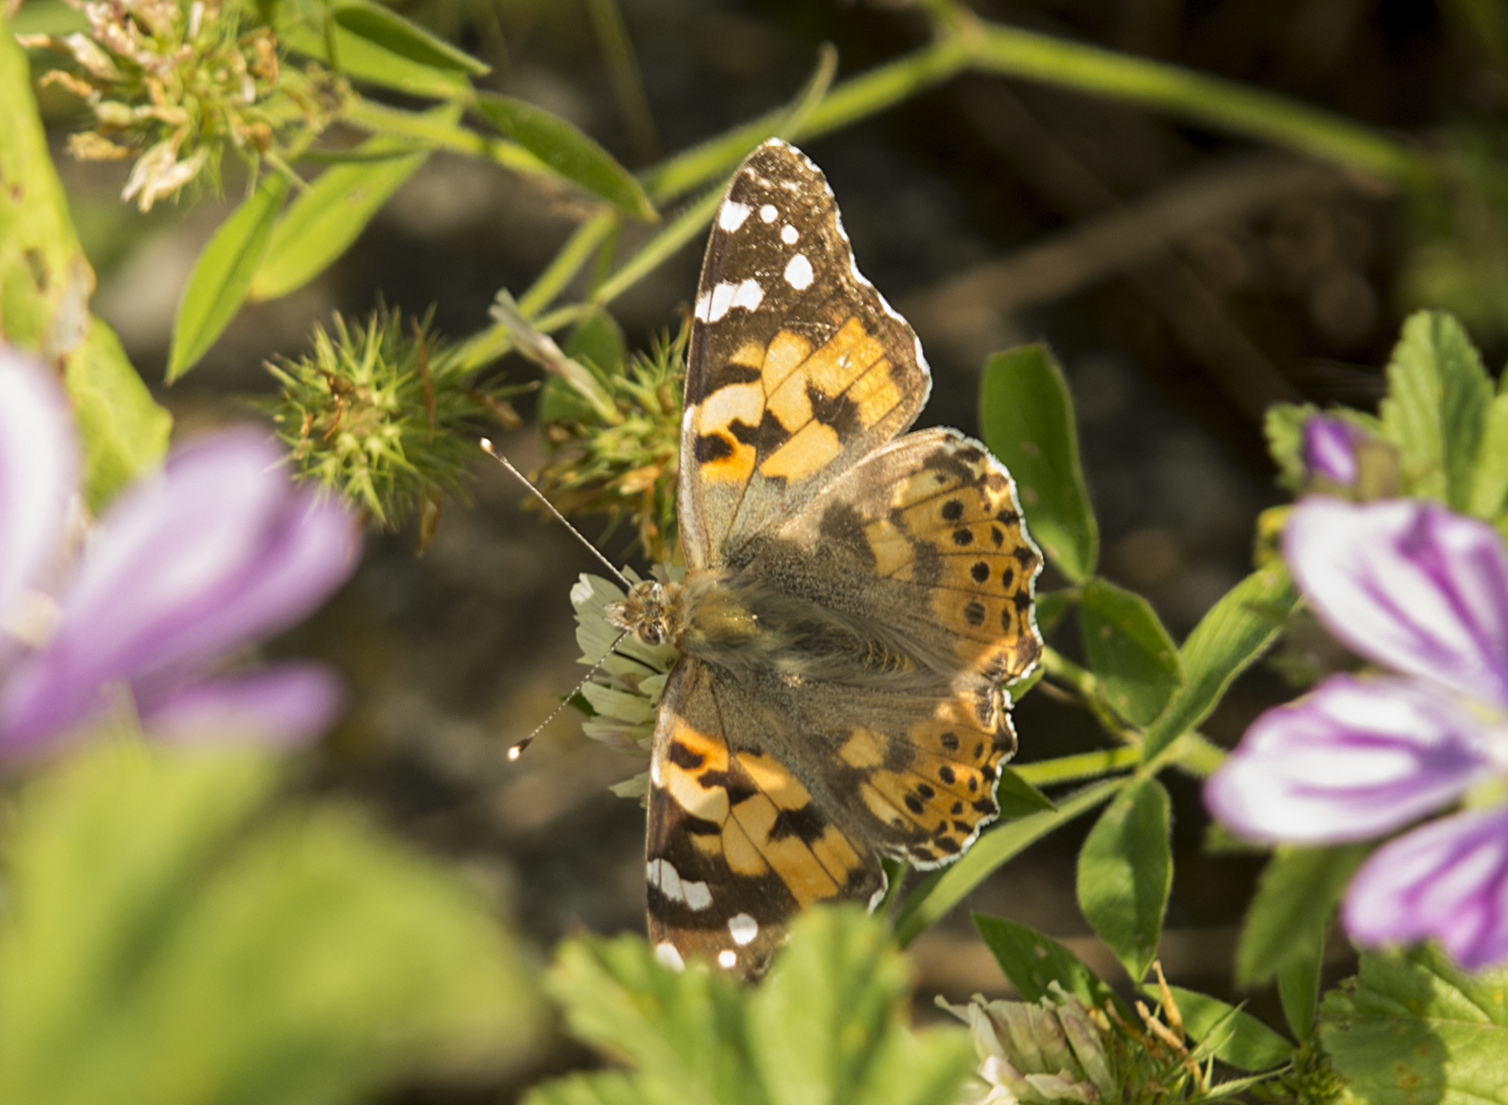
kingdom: Animalia
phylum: Arthropoda
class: Insecta
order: Lepidoptera
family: Nymphalidae
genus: Vanessa
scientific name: Vanessa cardui
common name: Painted lady
